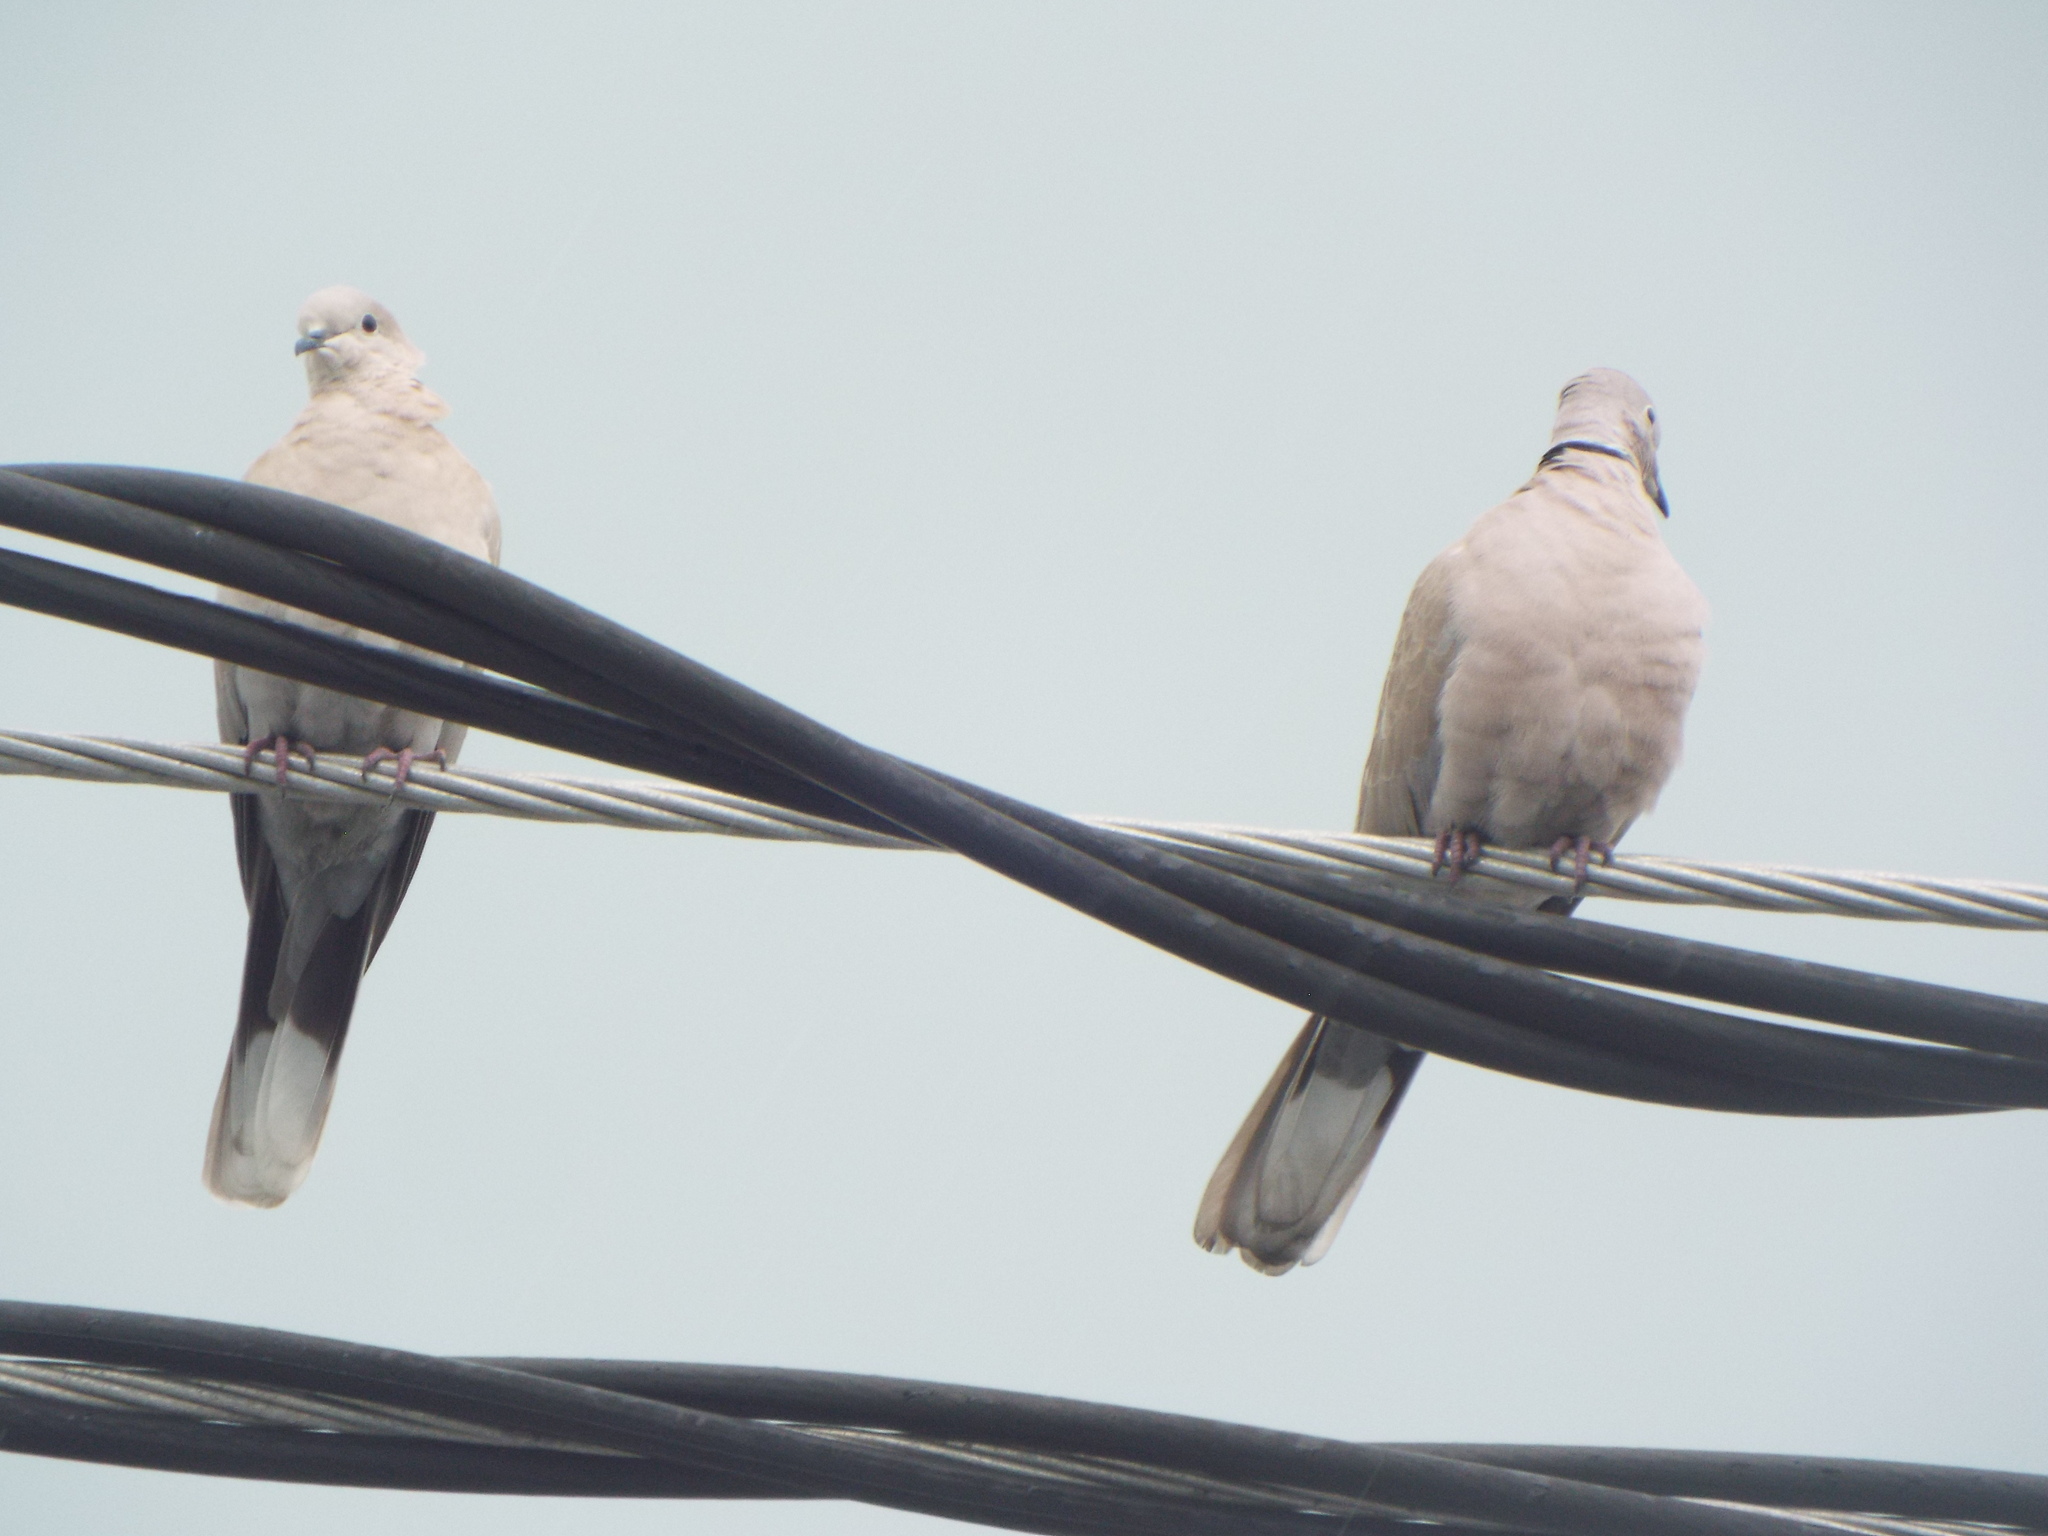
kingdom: Animalia
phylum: Chordata
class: Aves
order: Columbiformes
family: Columbidae
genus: Streptopelia
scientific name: Streptopelia decaocto
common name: Eurasian collared dove
